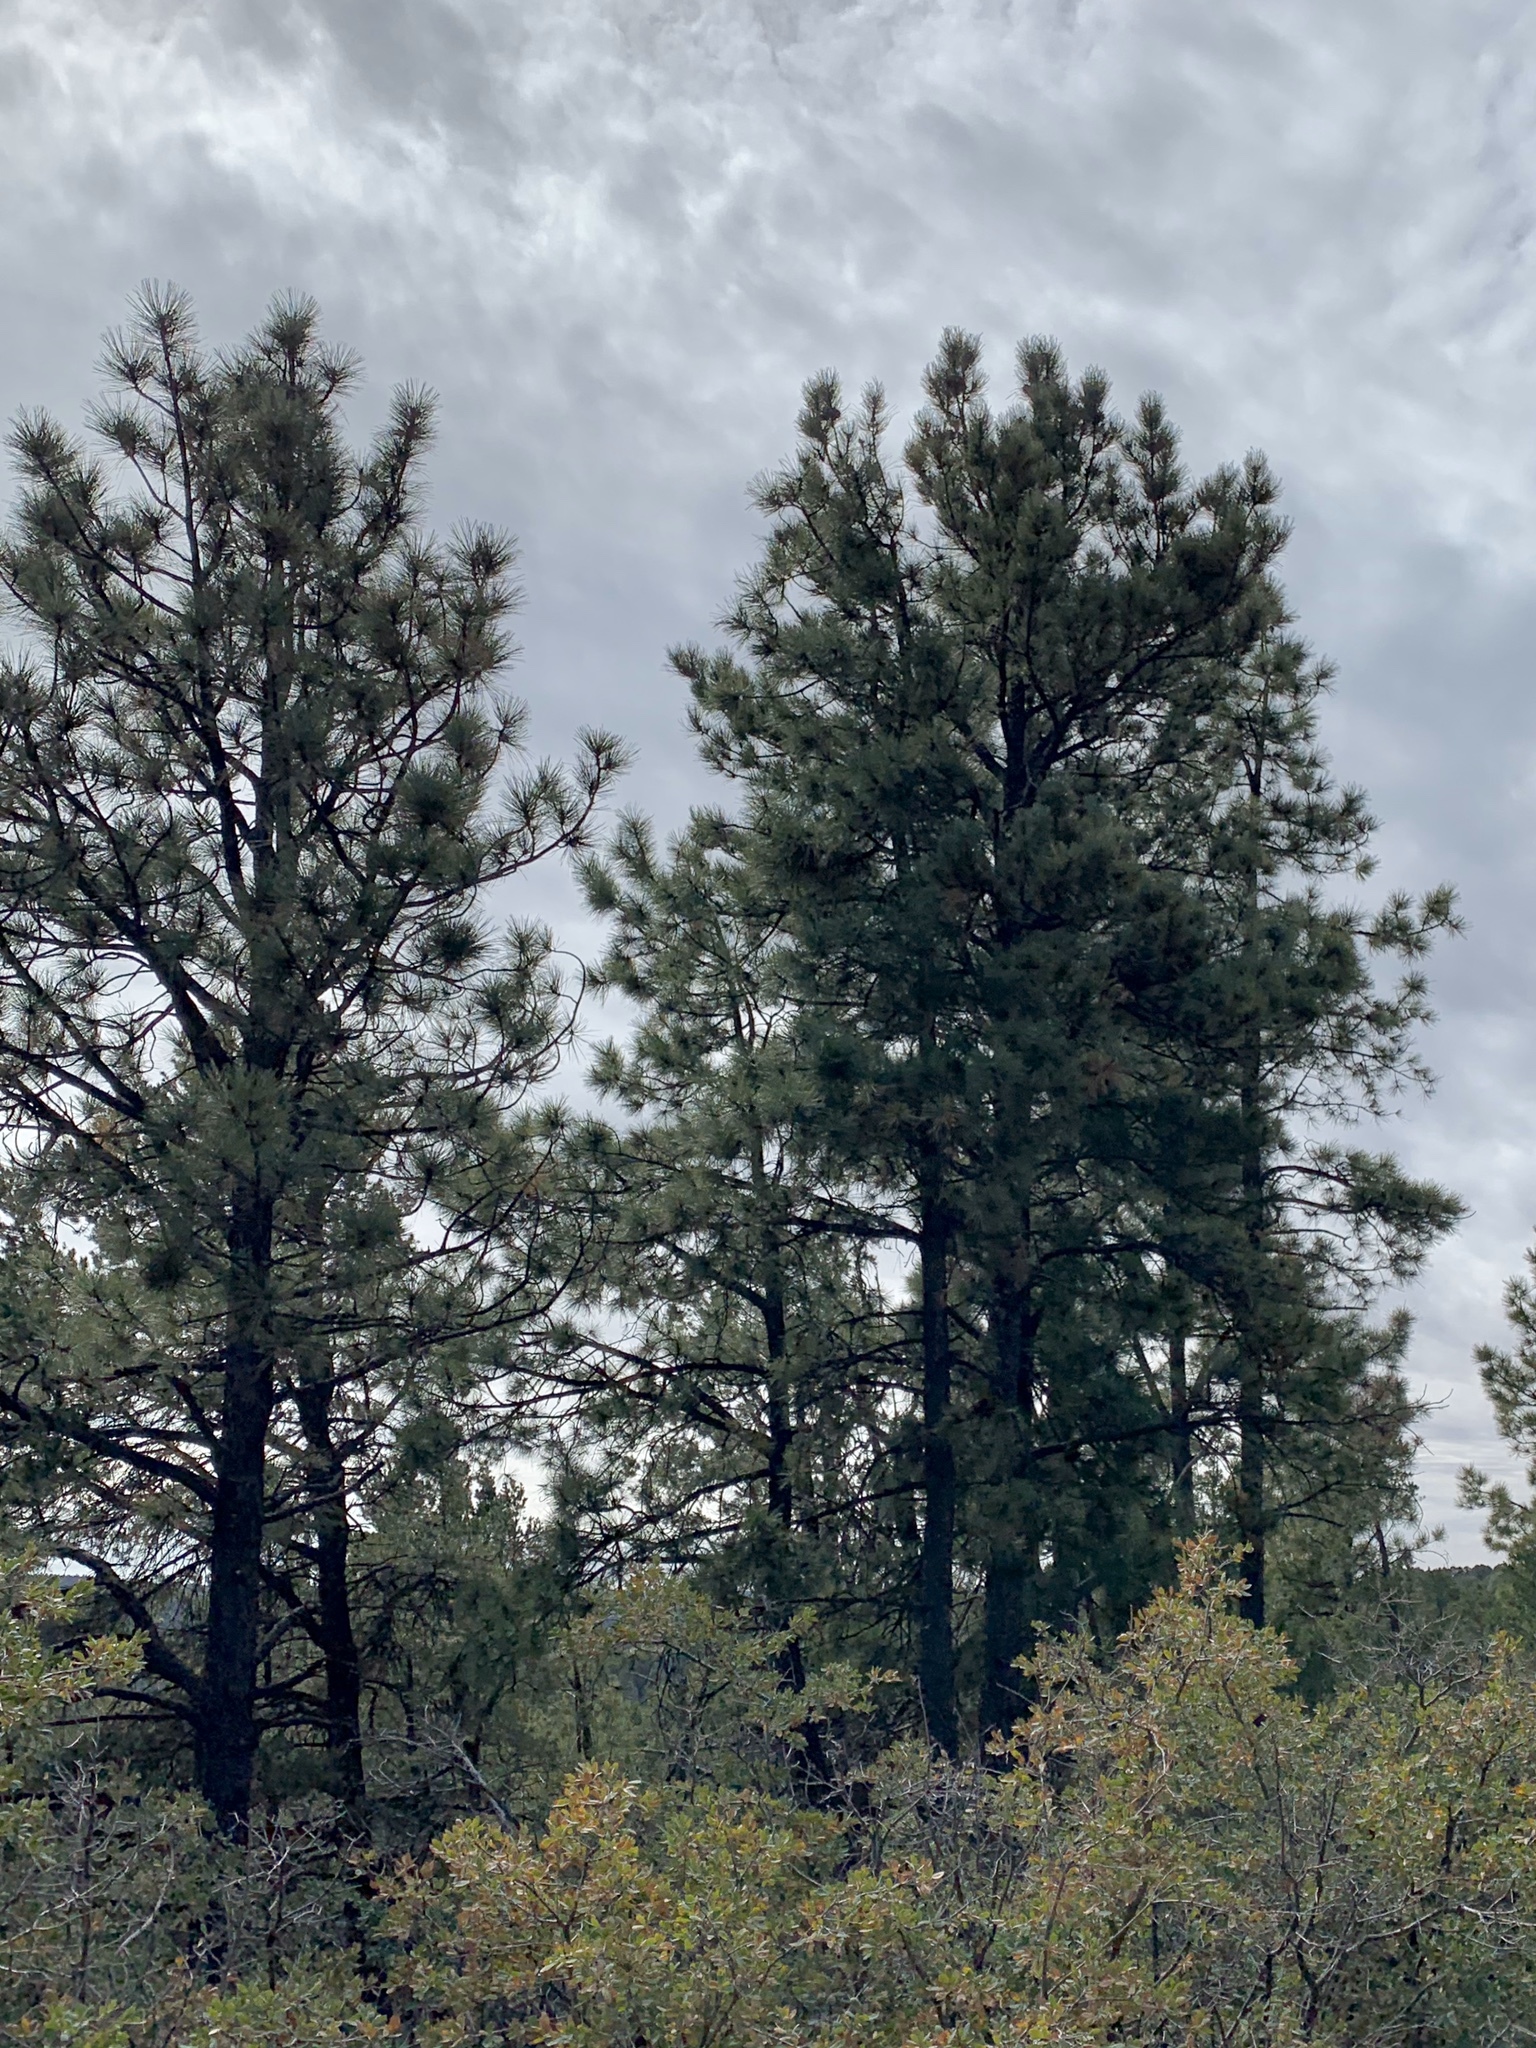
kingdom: Plantae
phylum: Tracheophyta
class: Pinopsida
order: Pinales
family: Pinaceae
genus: Pinus
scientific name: Pinus ponderosa
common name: Western yellow-pine
